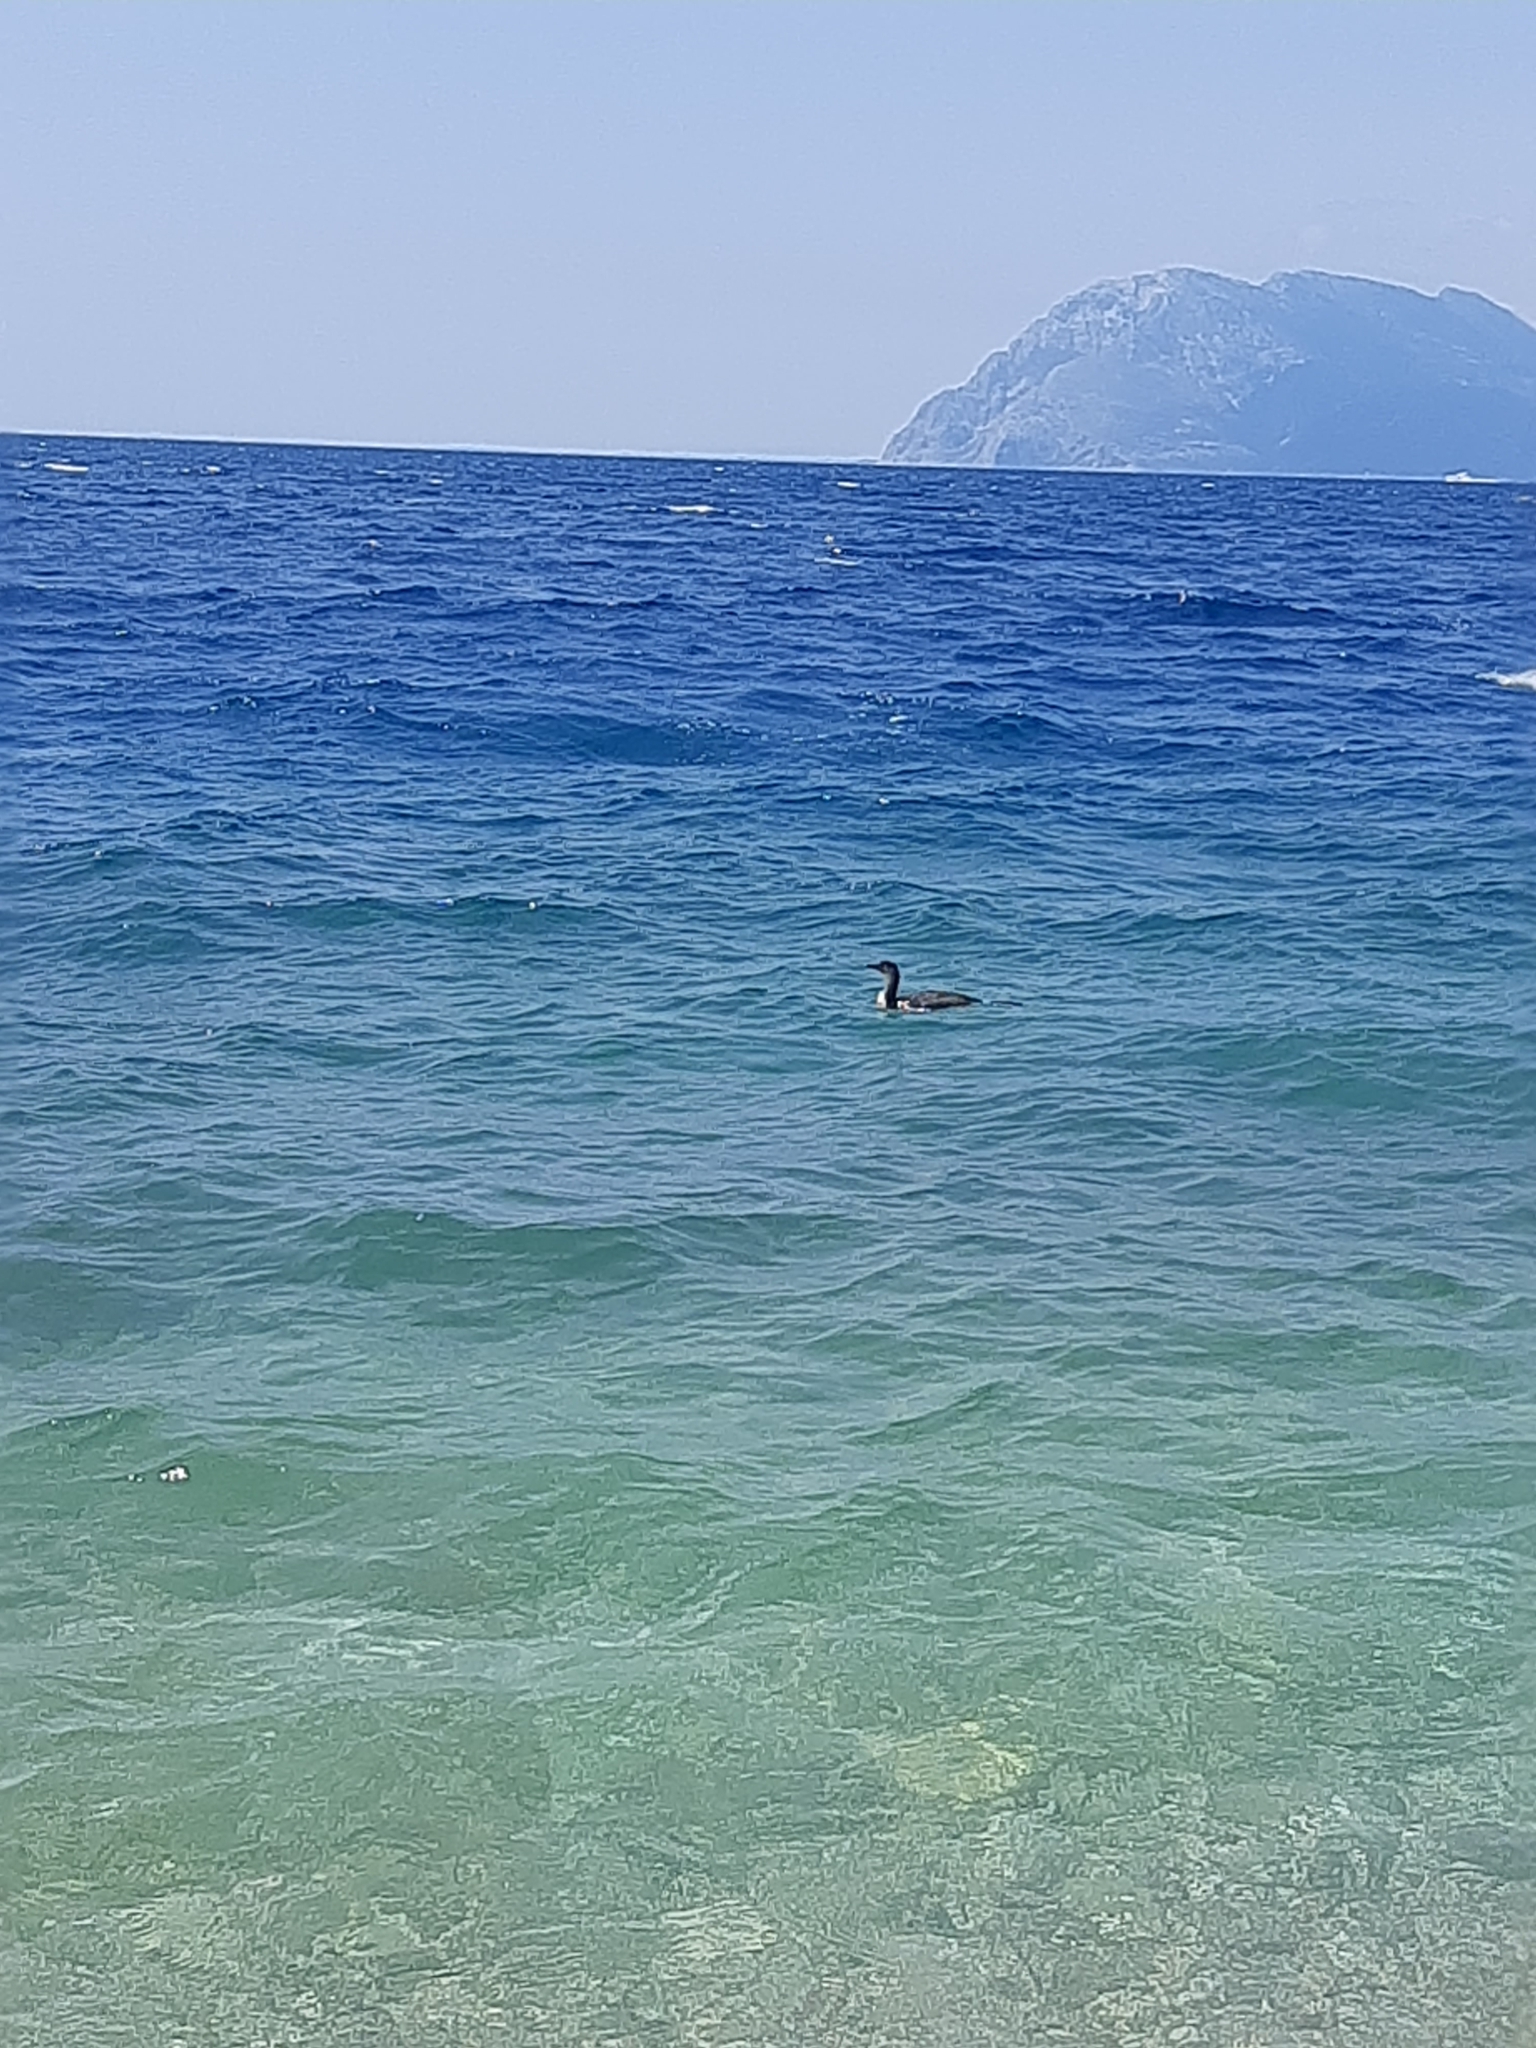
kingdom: Animalia
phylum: Chordata
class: Aves
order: Suliformes
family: Phalacrocoracidae
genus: Phalacrocorax
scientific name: Phalacrocorax carbo
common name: Great cormorant
